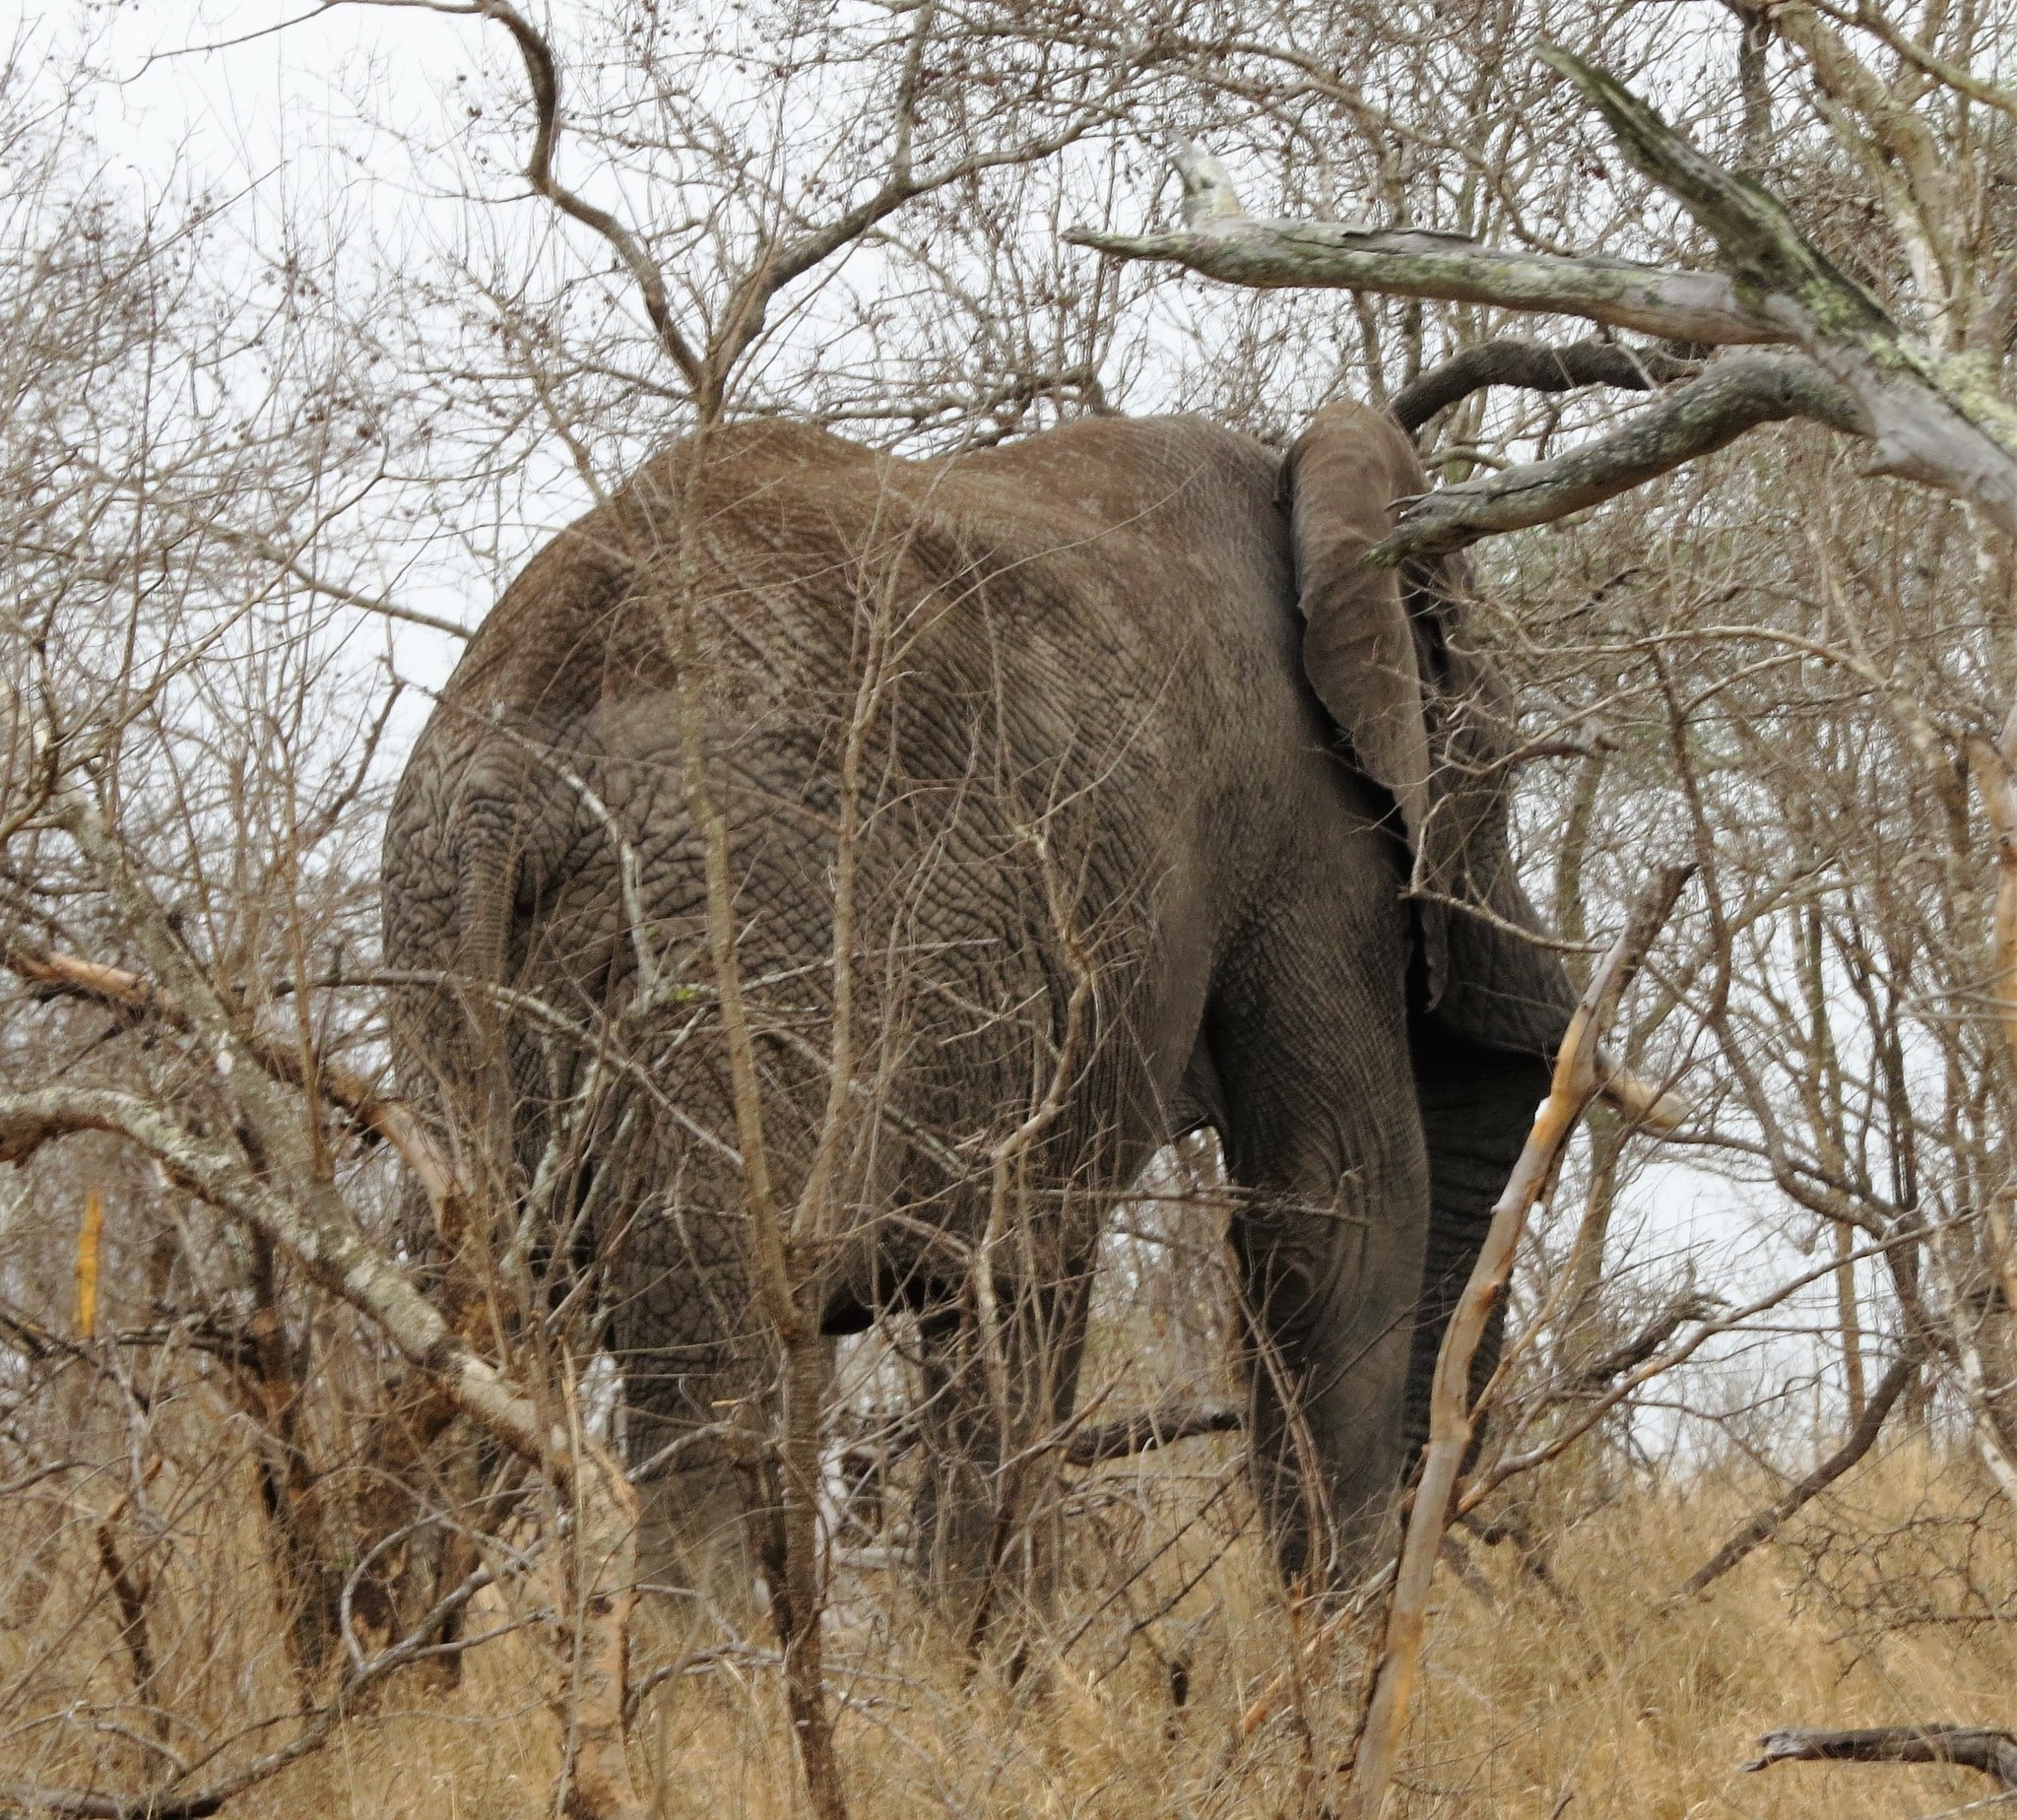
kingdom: Animalia
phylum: Chordata
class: Mammalia
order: Proboscidea
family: Elephantidae
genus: Loxodonta
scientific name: Loxodonta africana
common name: African elephant
